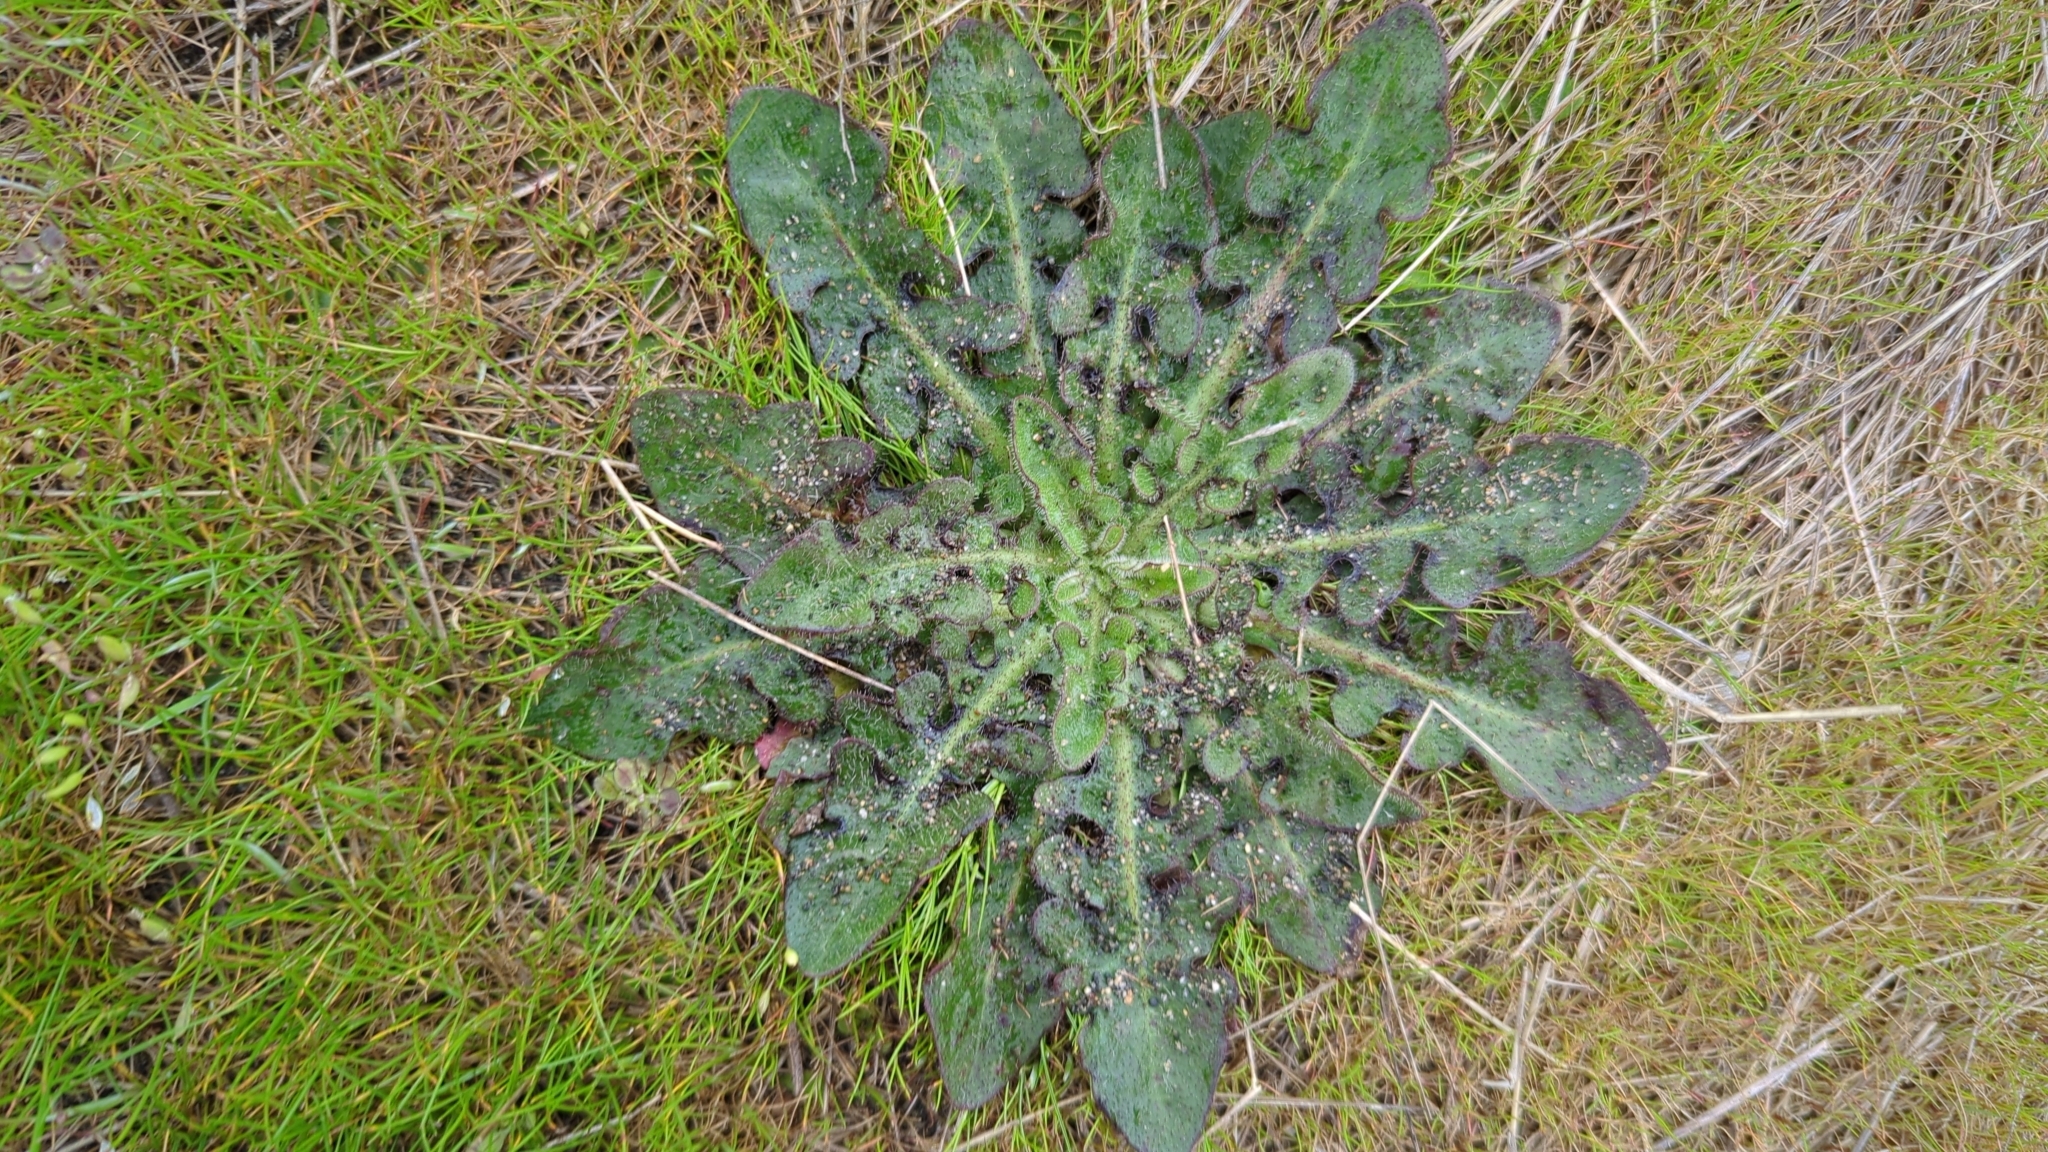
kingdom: Plantae
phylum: Tracheophyta
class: Magnoliopsida
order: Asterales
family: Asteraceae
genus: Hypochaeris
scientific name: Hypochaeris radicata
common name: Flatweed
